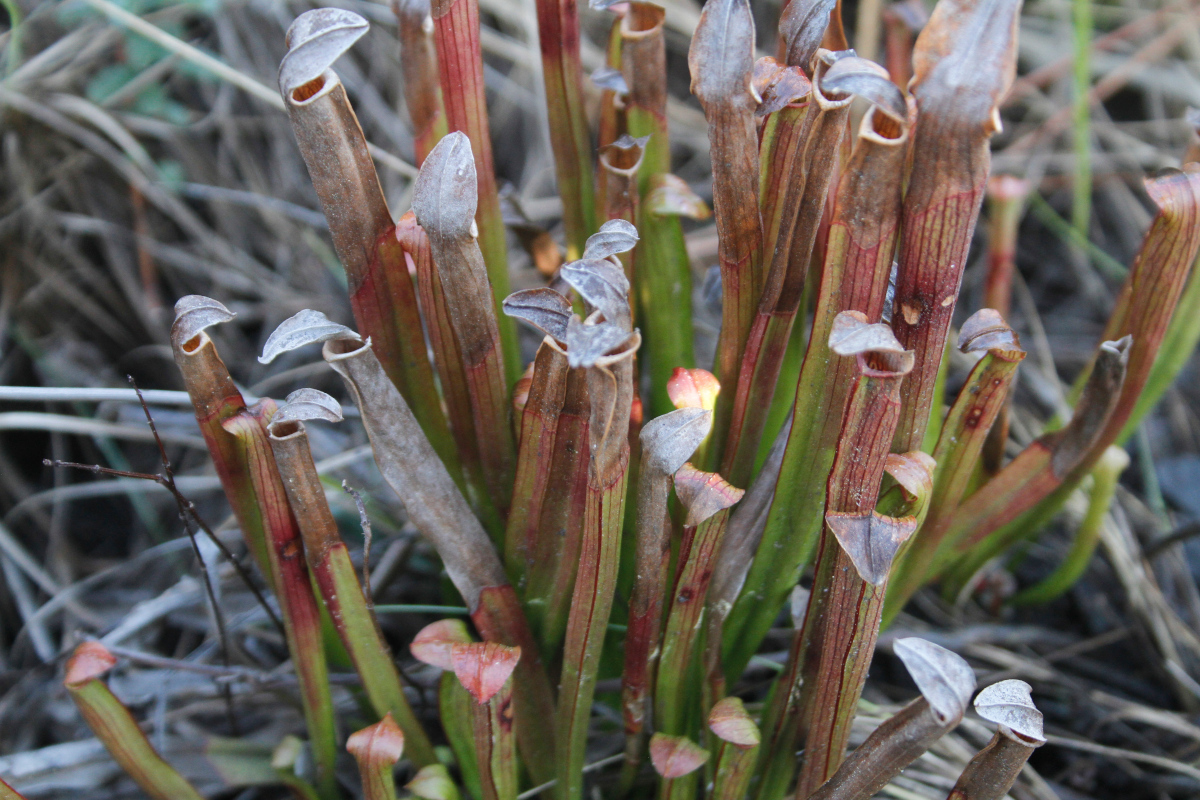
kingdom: Plantae
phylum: Tracheophyta
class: Magnoliopsida
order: Ericales
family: Sarraceniaceae
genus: Sarracenia
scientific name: Sarracenia rubra
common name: Sweet pitcherplant
